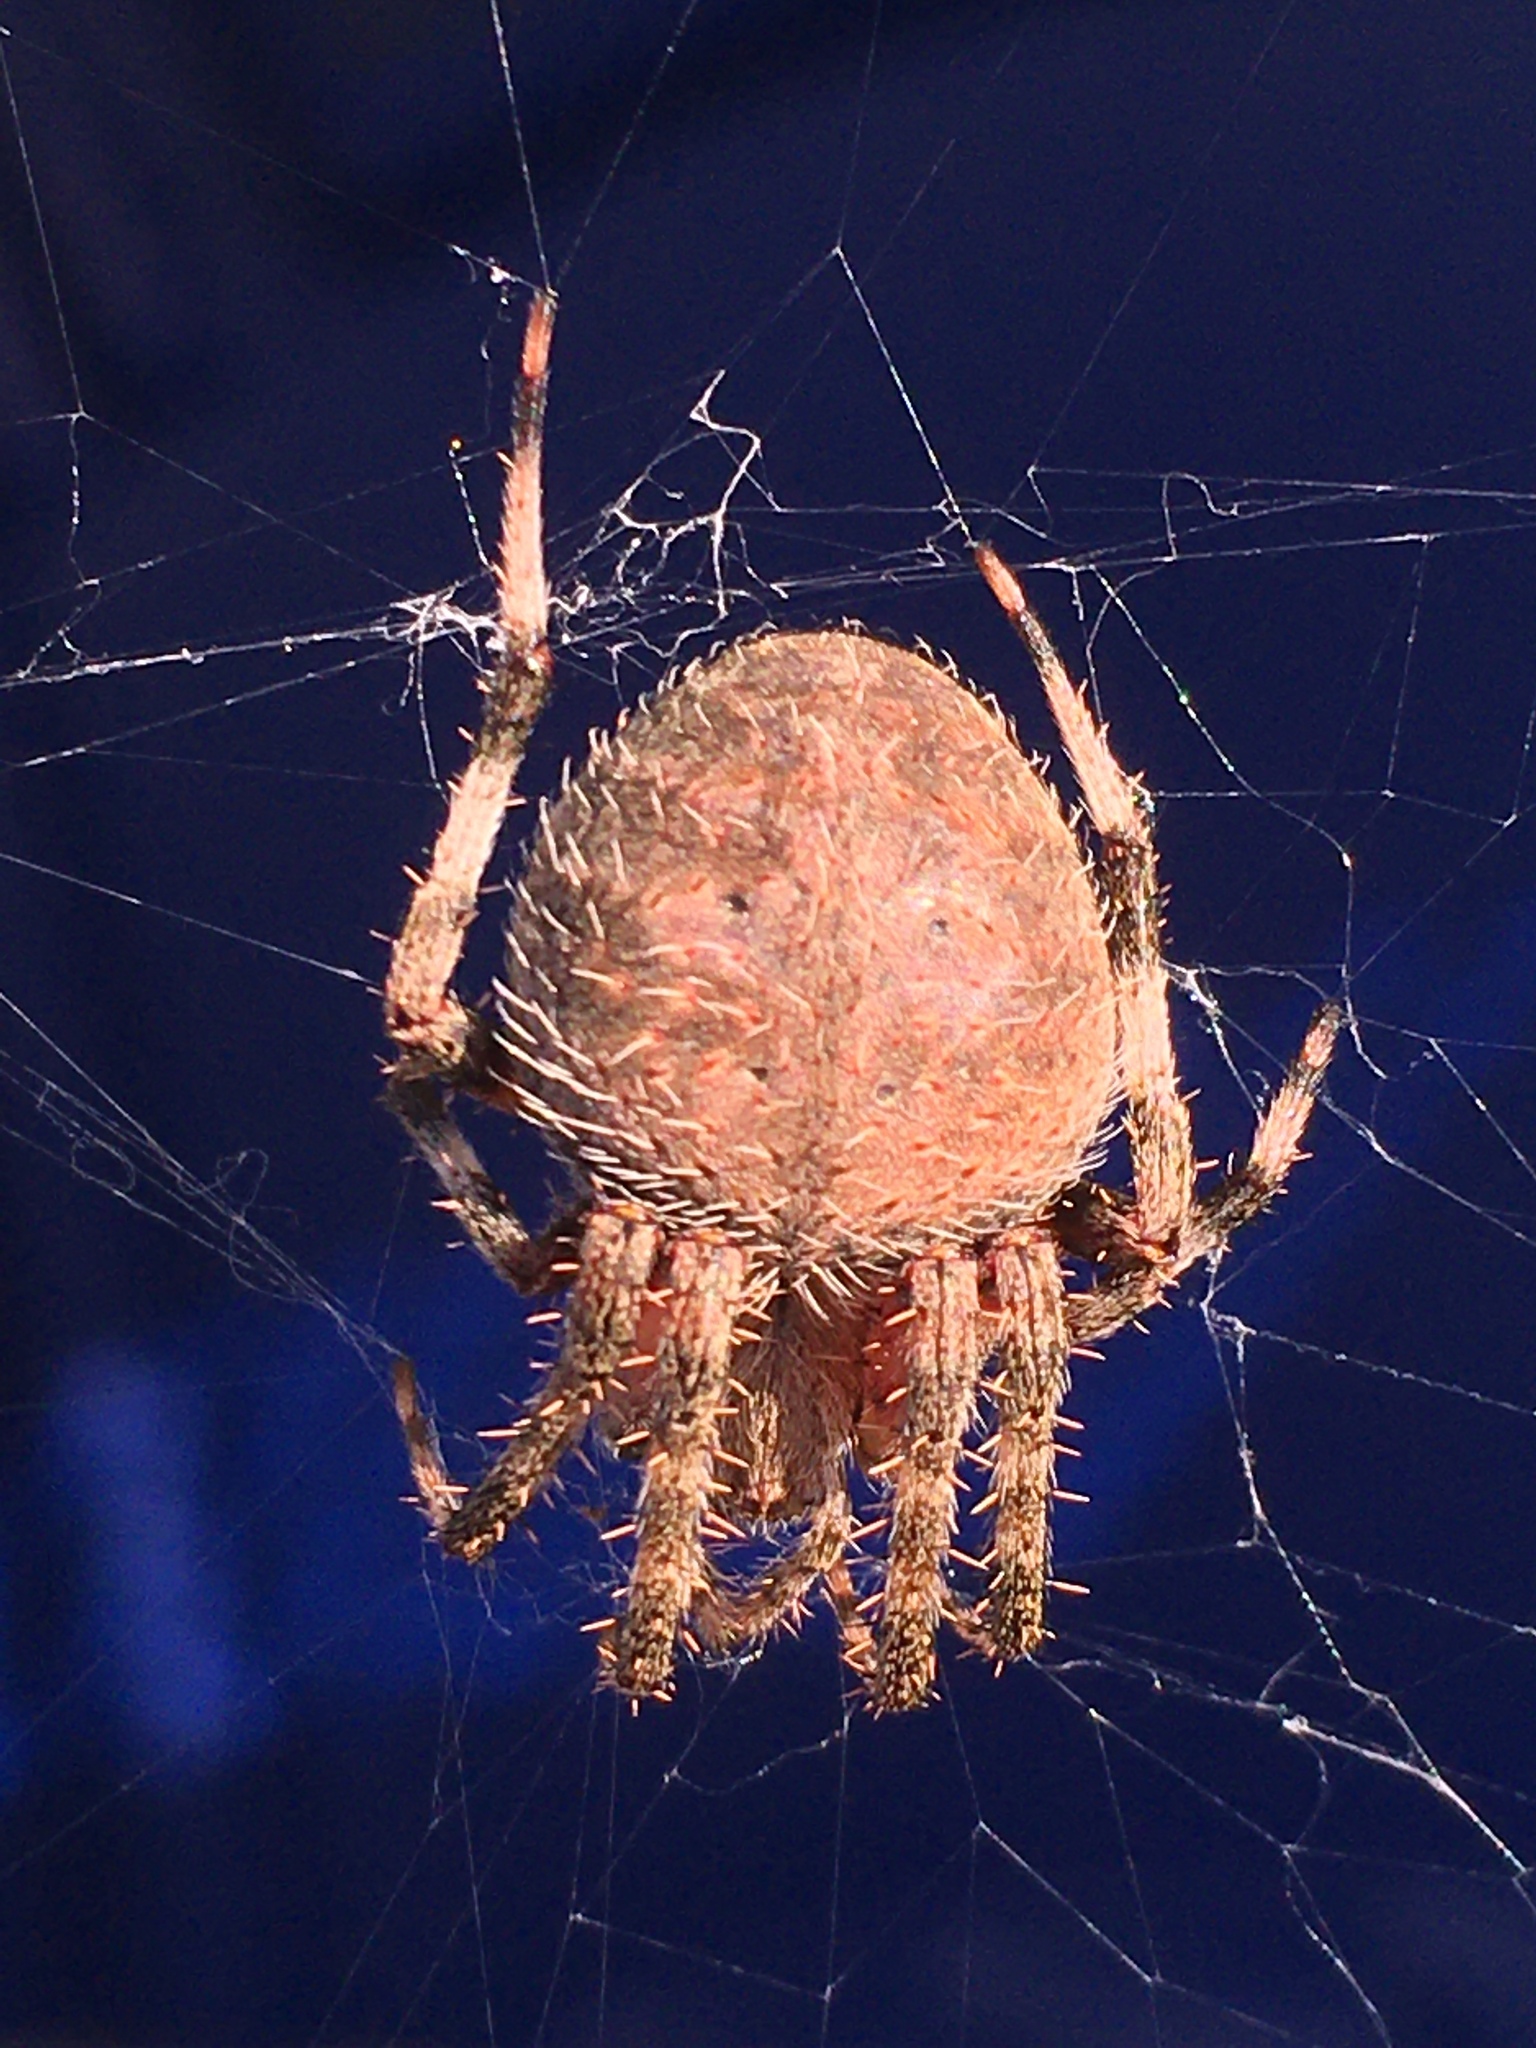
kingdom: Animalia
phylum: Arthropoda
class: Arachnida
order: Araneae
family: Araneidae
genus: Neoscona
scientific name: Neoscona crucifera
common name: Spotted orbweaver
